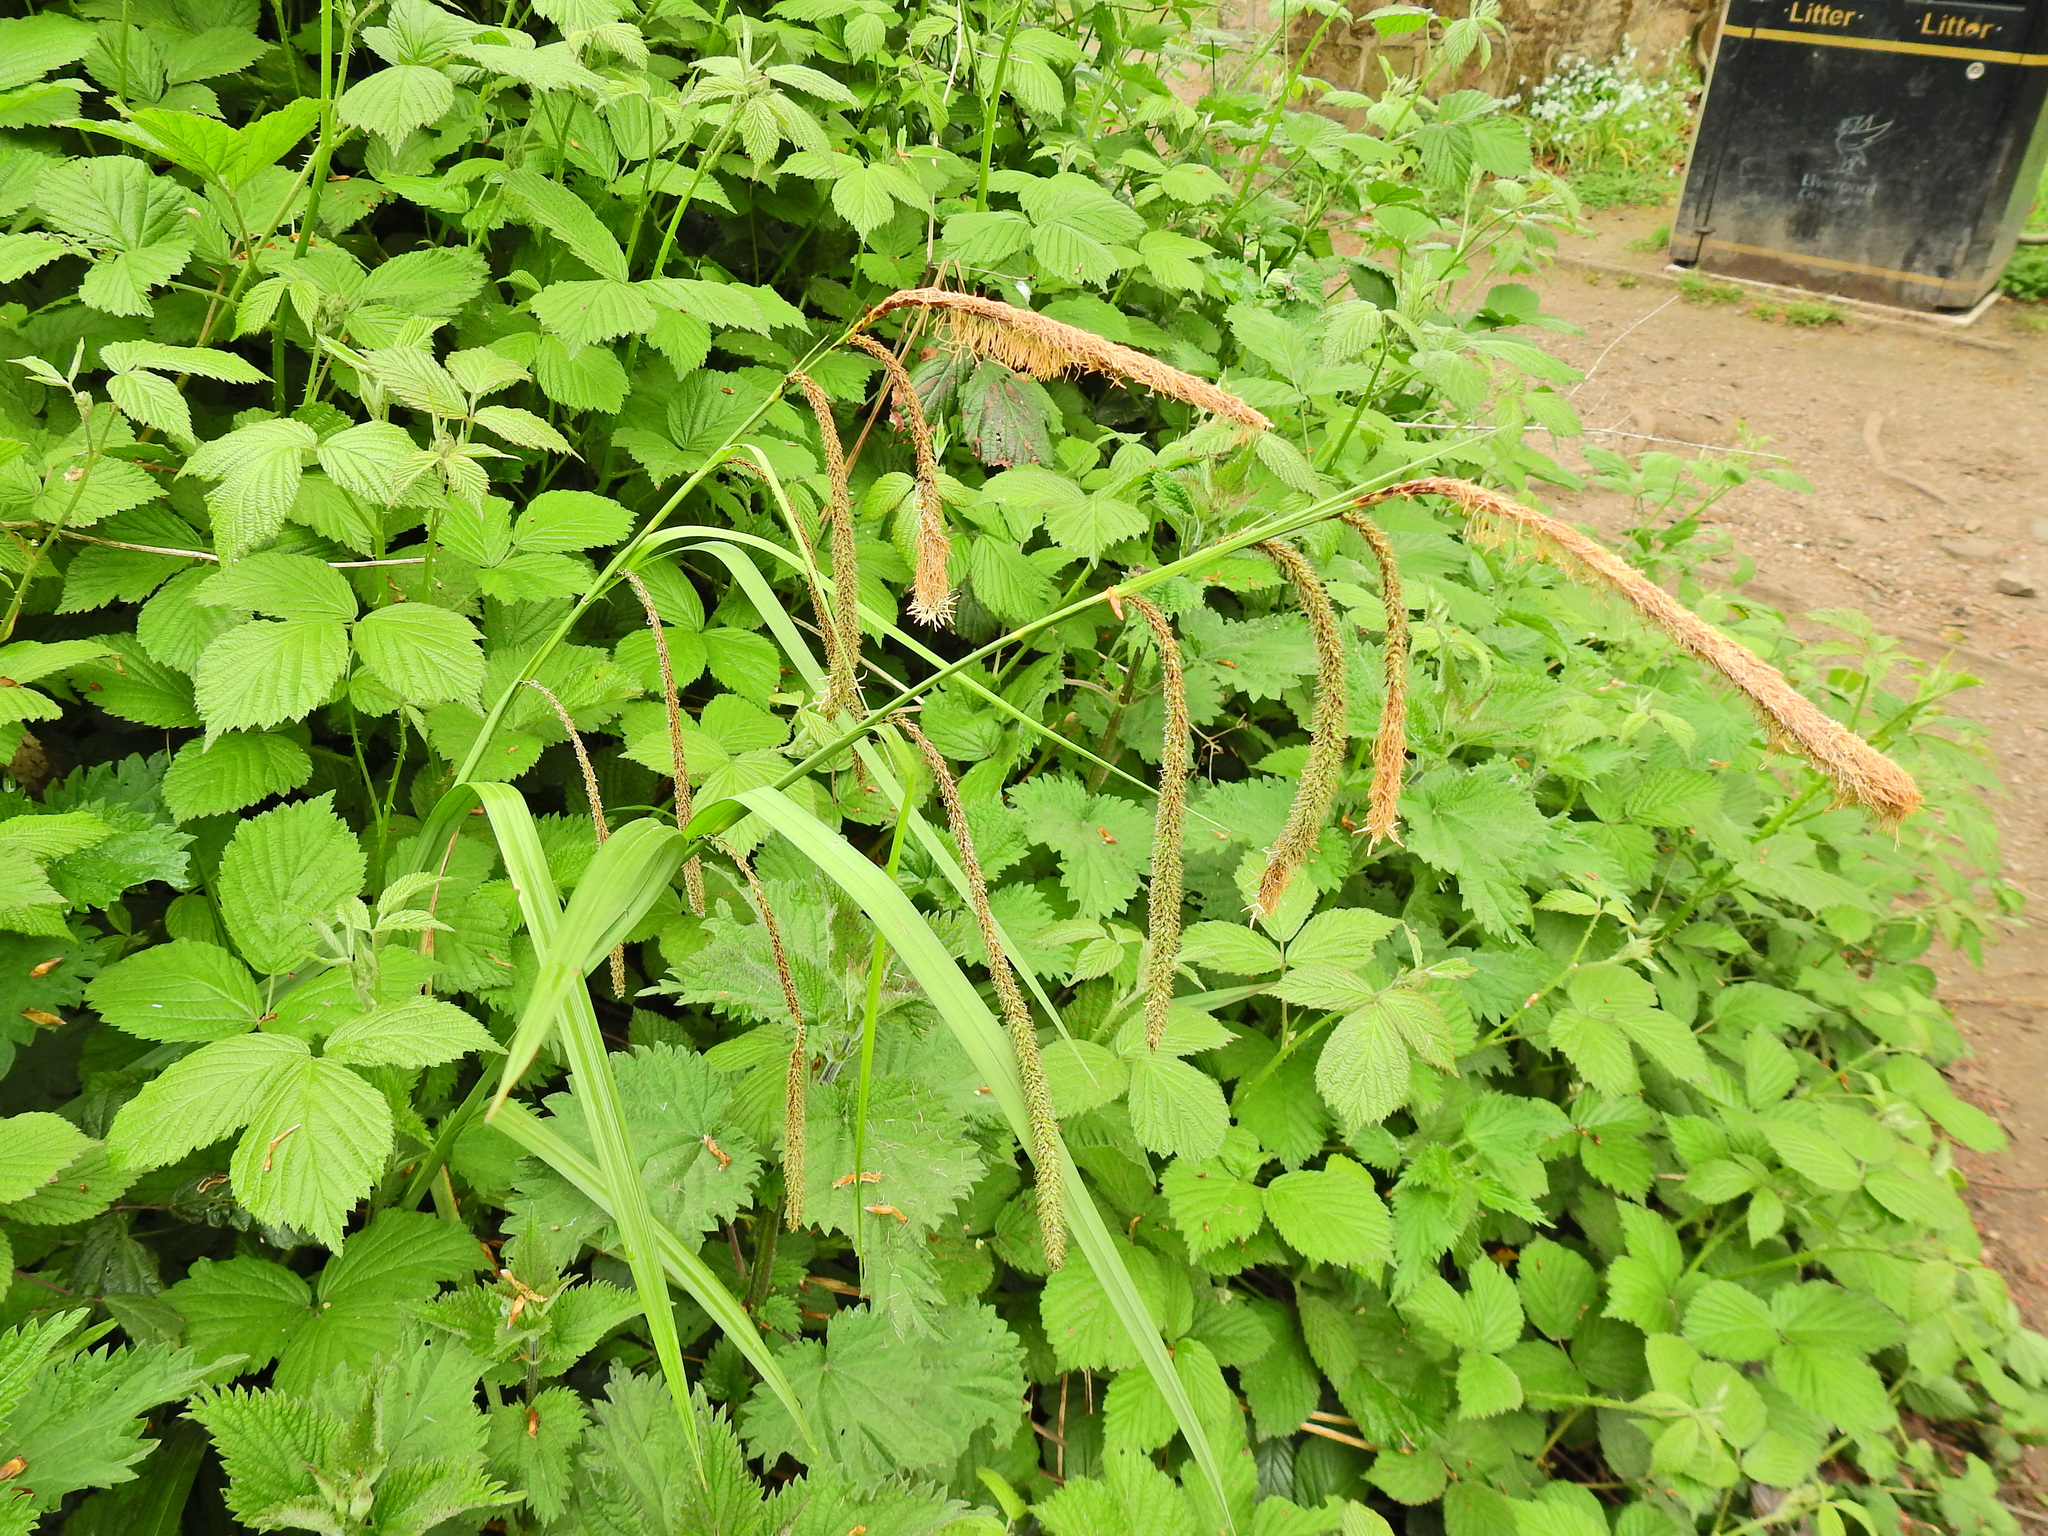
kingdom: Plantae
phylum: Tracheophyta
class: Liliopsida
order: Poales
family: Cyperaceae
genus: Carex
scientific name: Carex pendula
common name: Pendulous sedge
